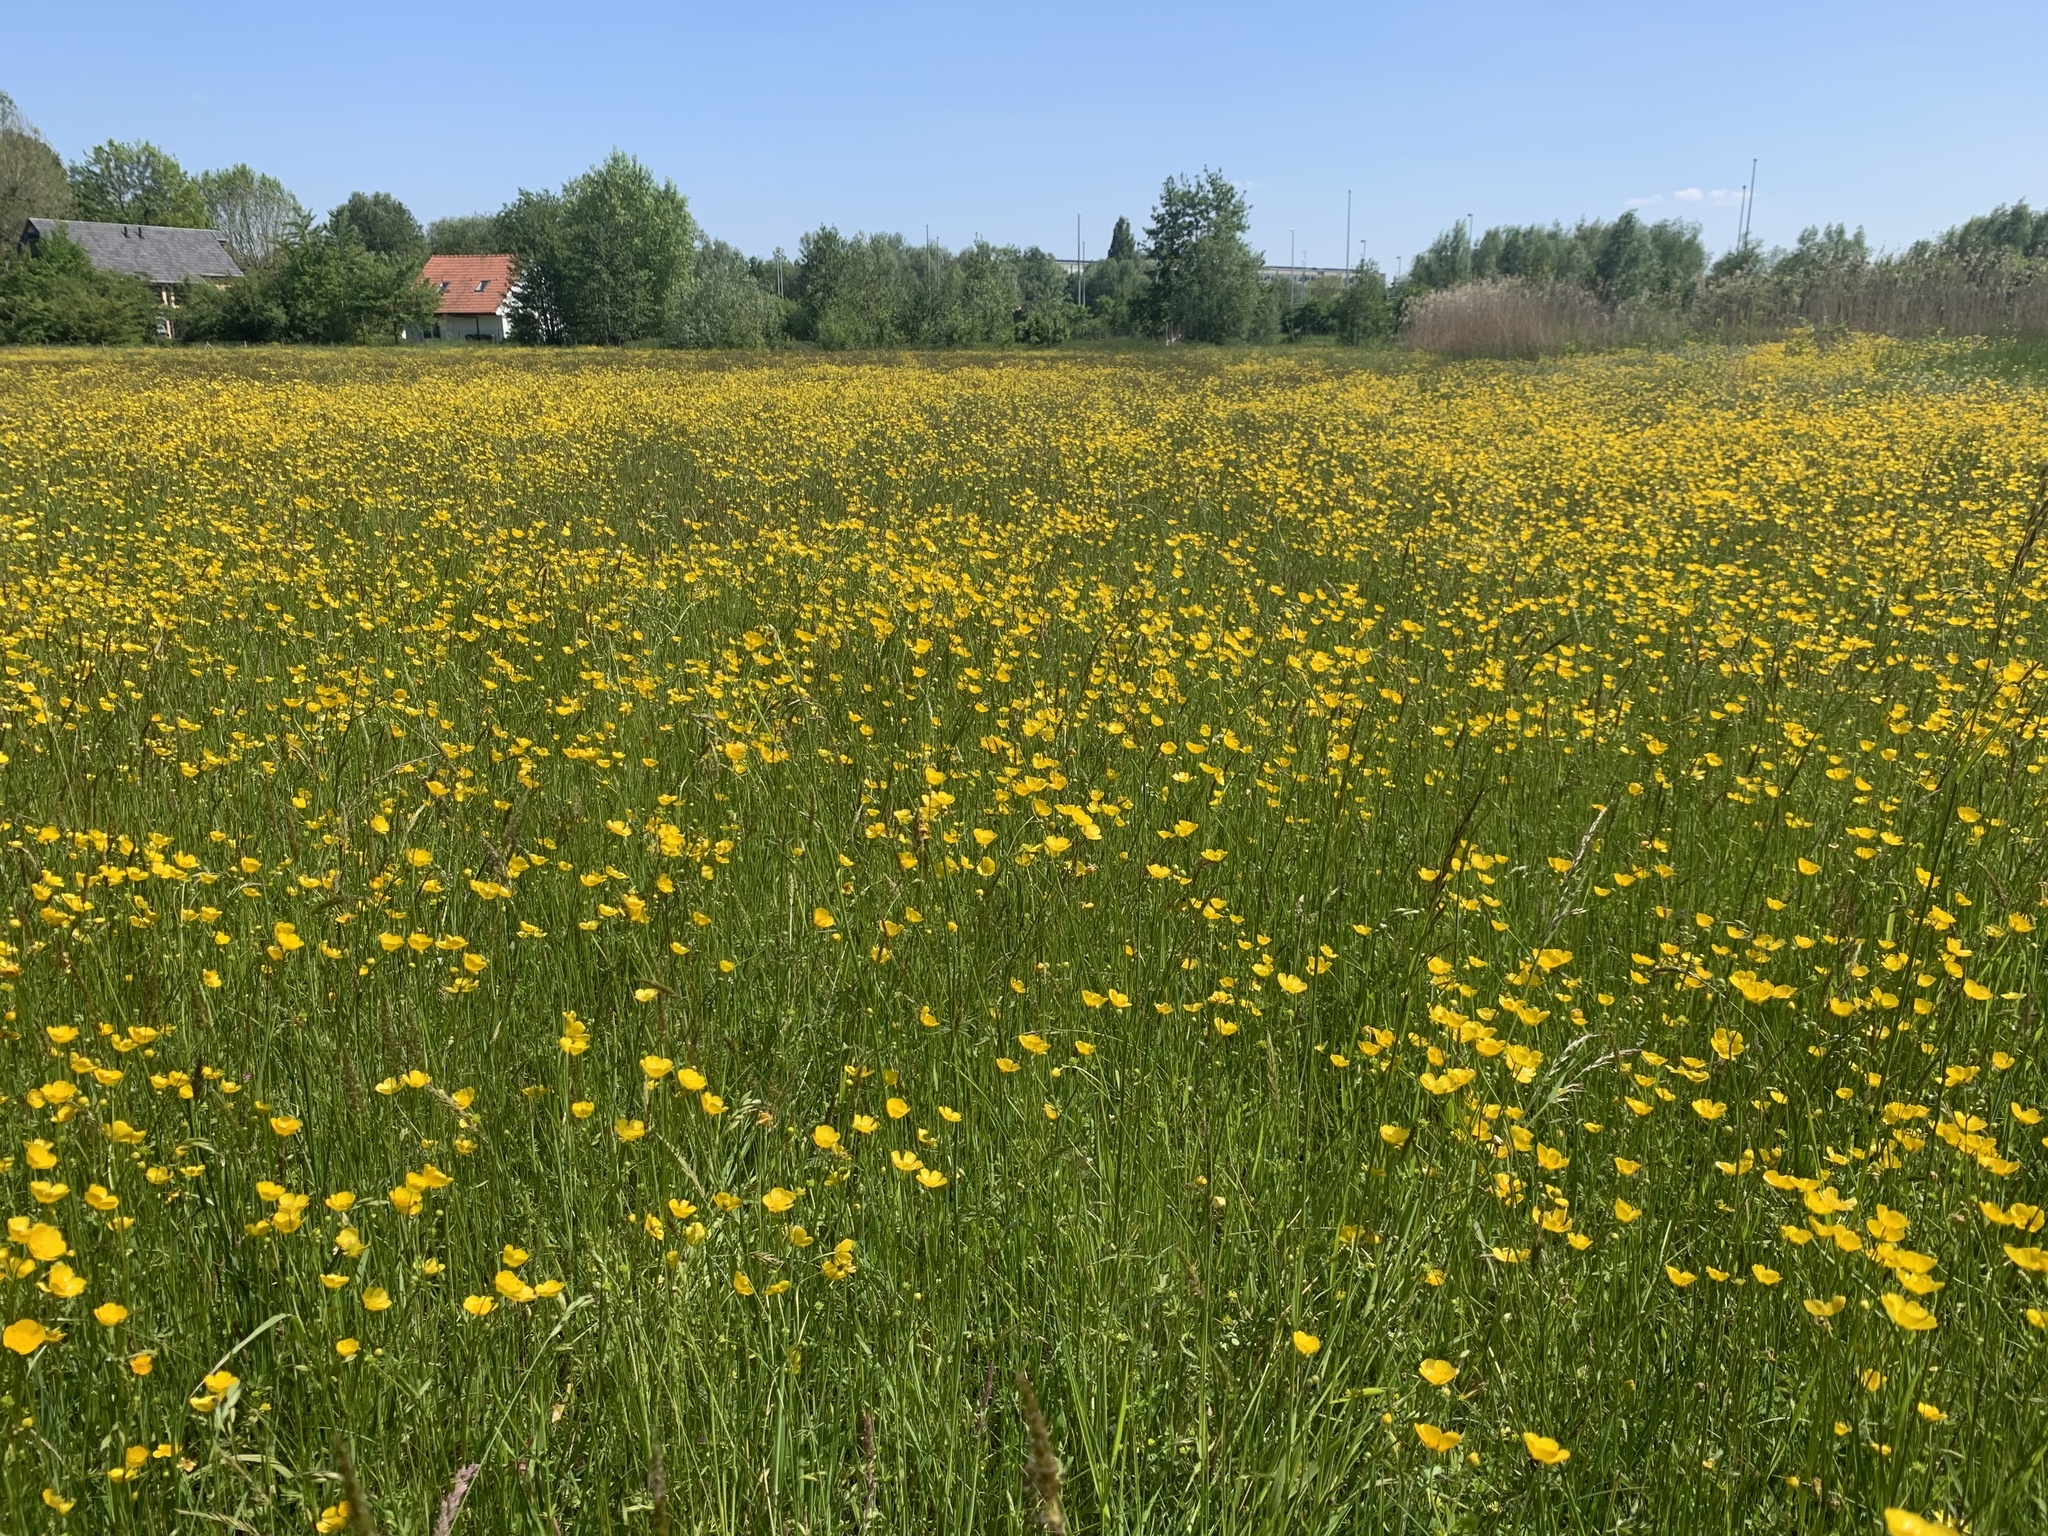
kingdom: Plantae
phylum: Tracheophyta
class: Magnoliopsida
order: Ranunculales
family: Ranunculaceae
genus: Ranunculus
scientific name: Ranunculus acris
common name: Meadow buttercup
